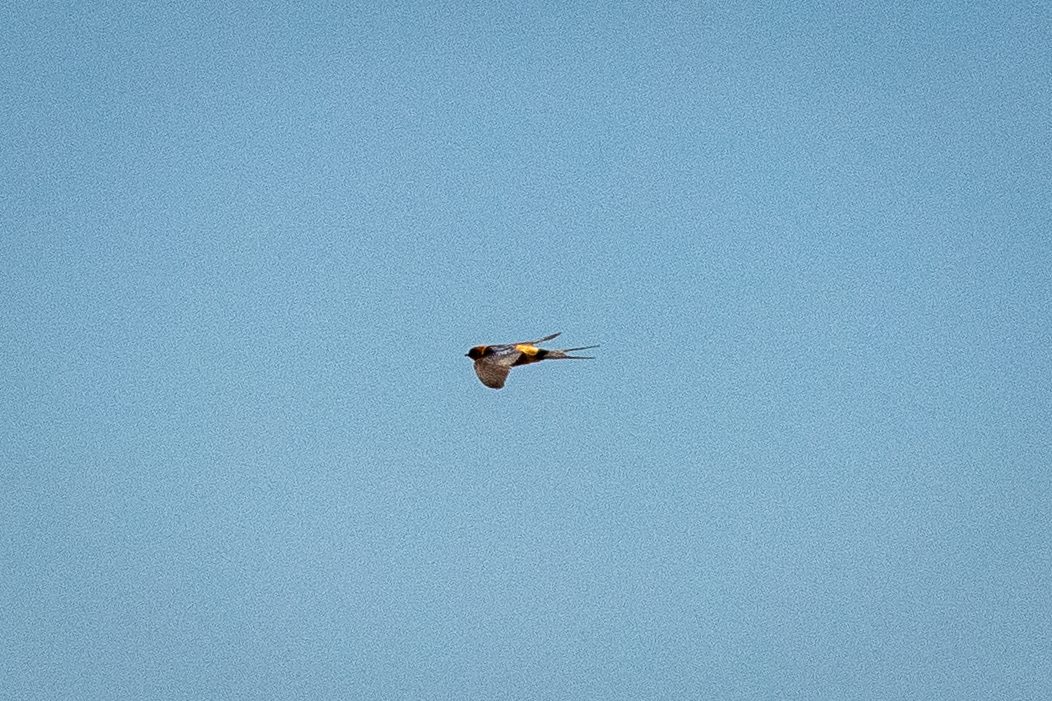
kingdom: Animalia
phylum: Chordata
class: Aves
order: Passeriformes
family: Hirundinidae
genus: Cecropis
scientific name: Cecropis cucullata
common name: Greater striped-swallow
